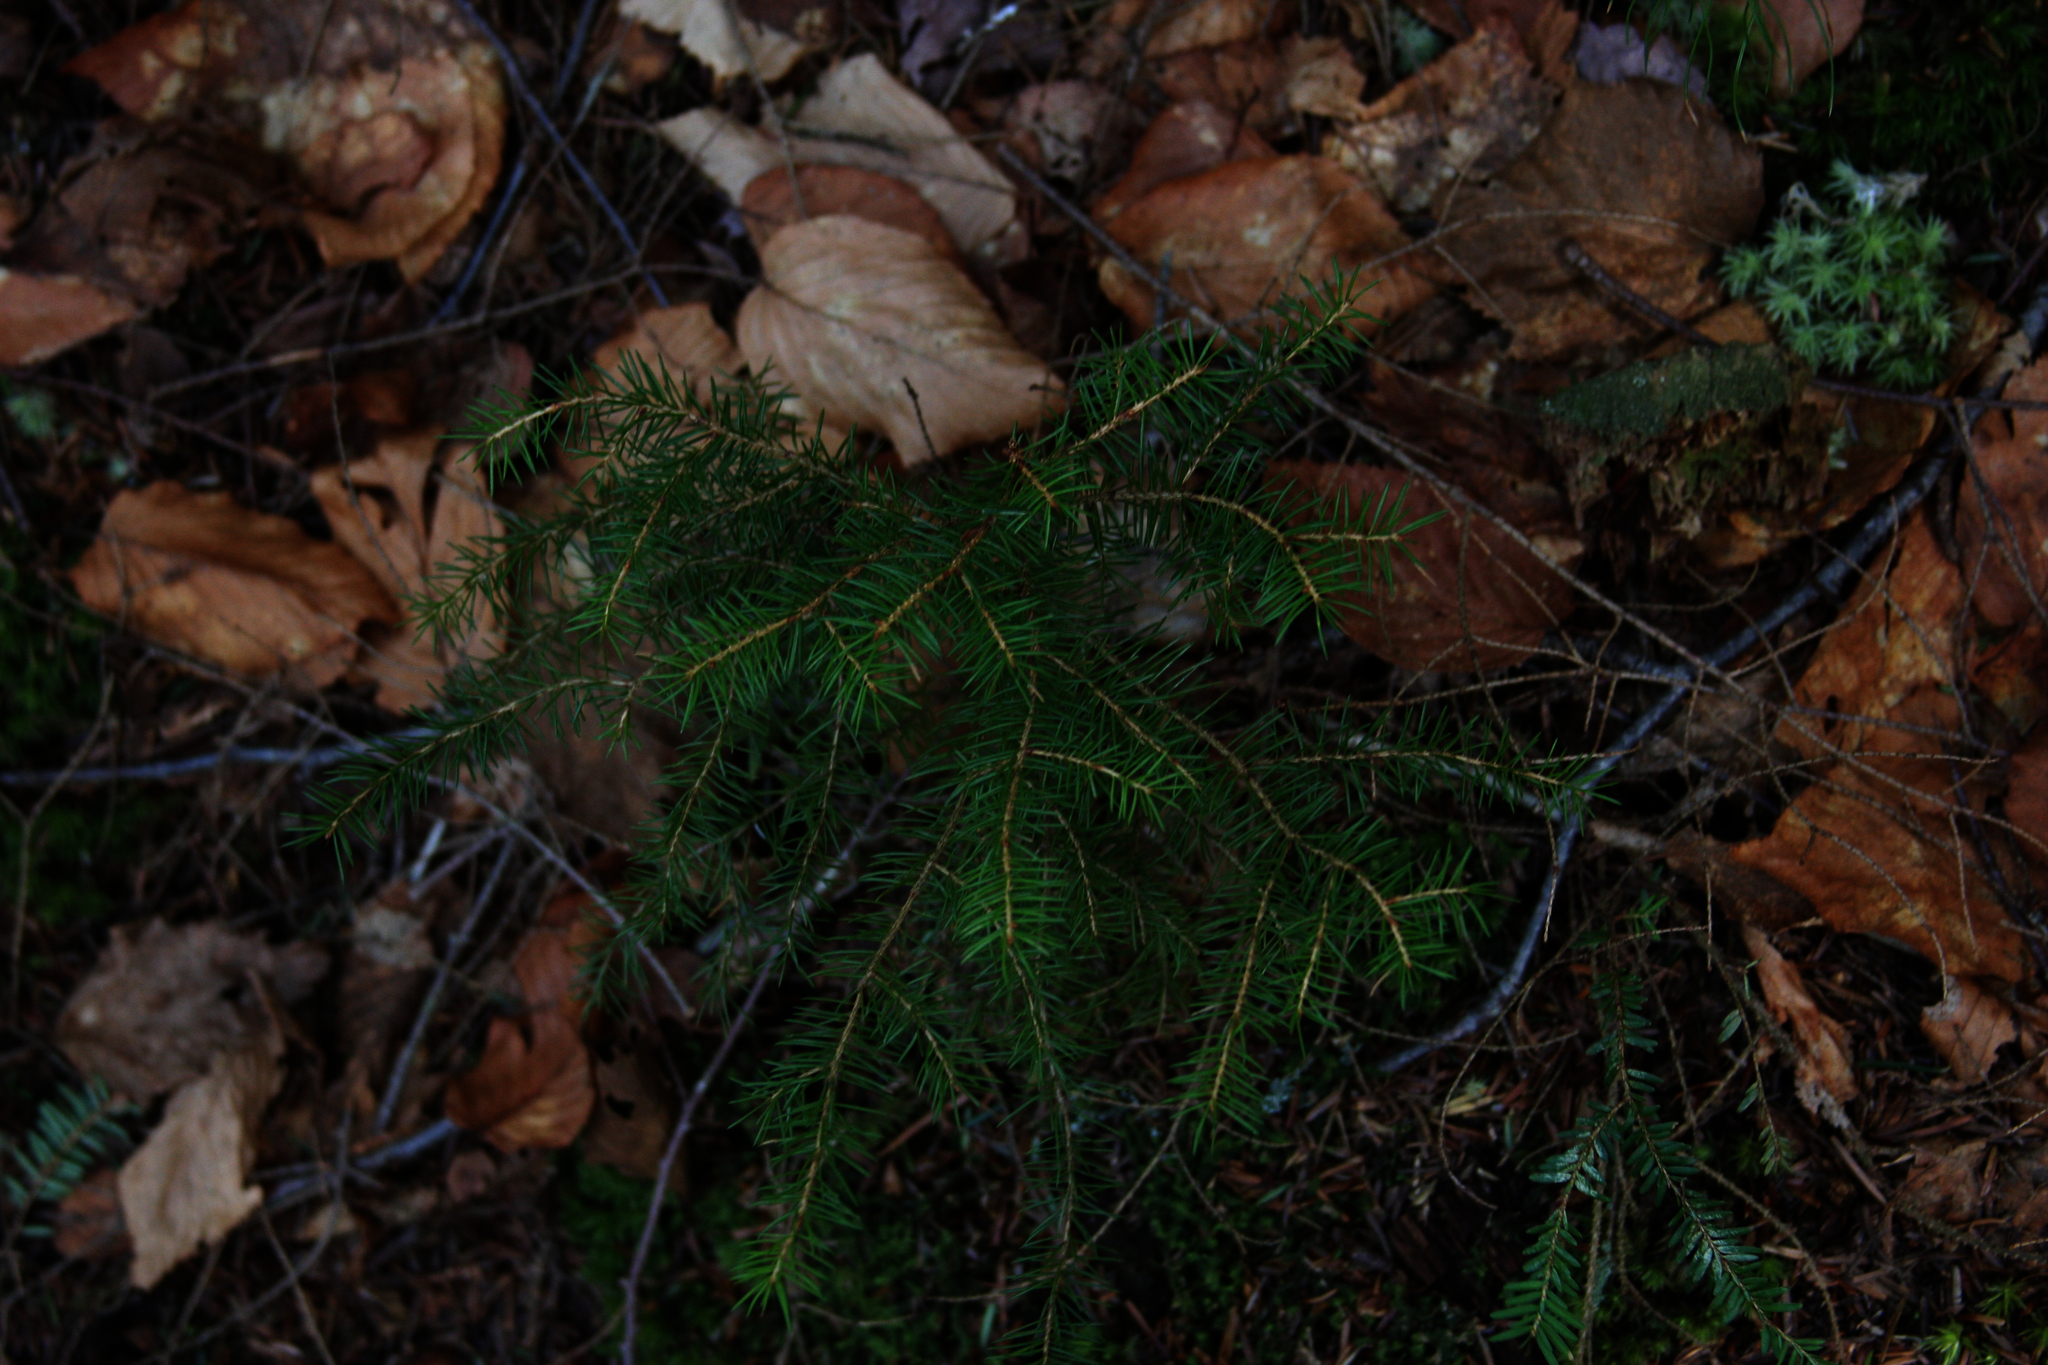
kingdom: Plantae
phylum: Tracheophyta
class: Pinopsida
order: Pinales
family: Pinaceae
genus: Picea
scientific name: Picea rubens
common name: Red spruce
